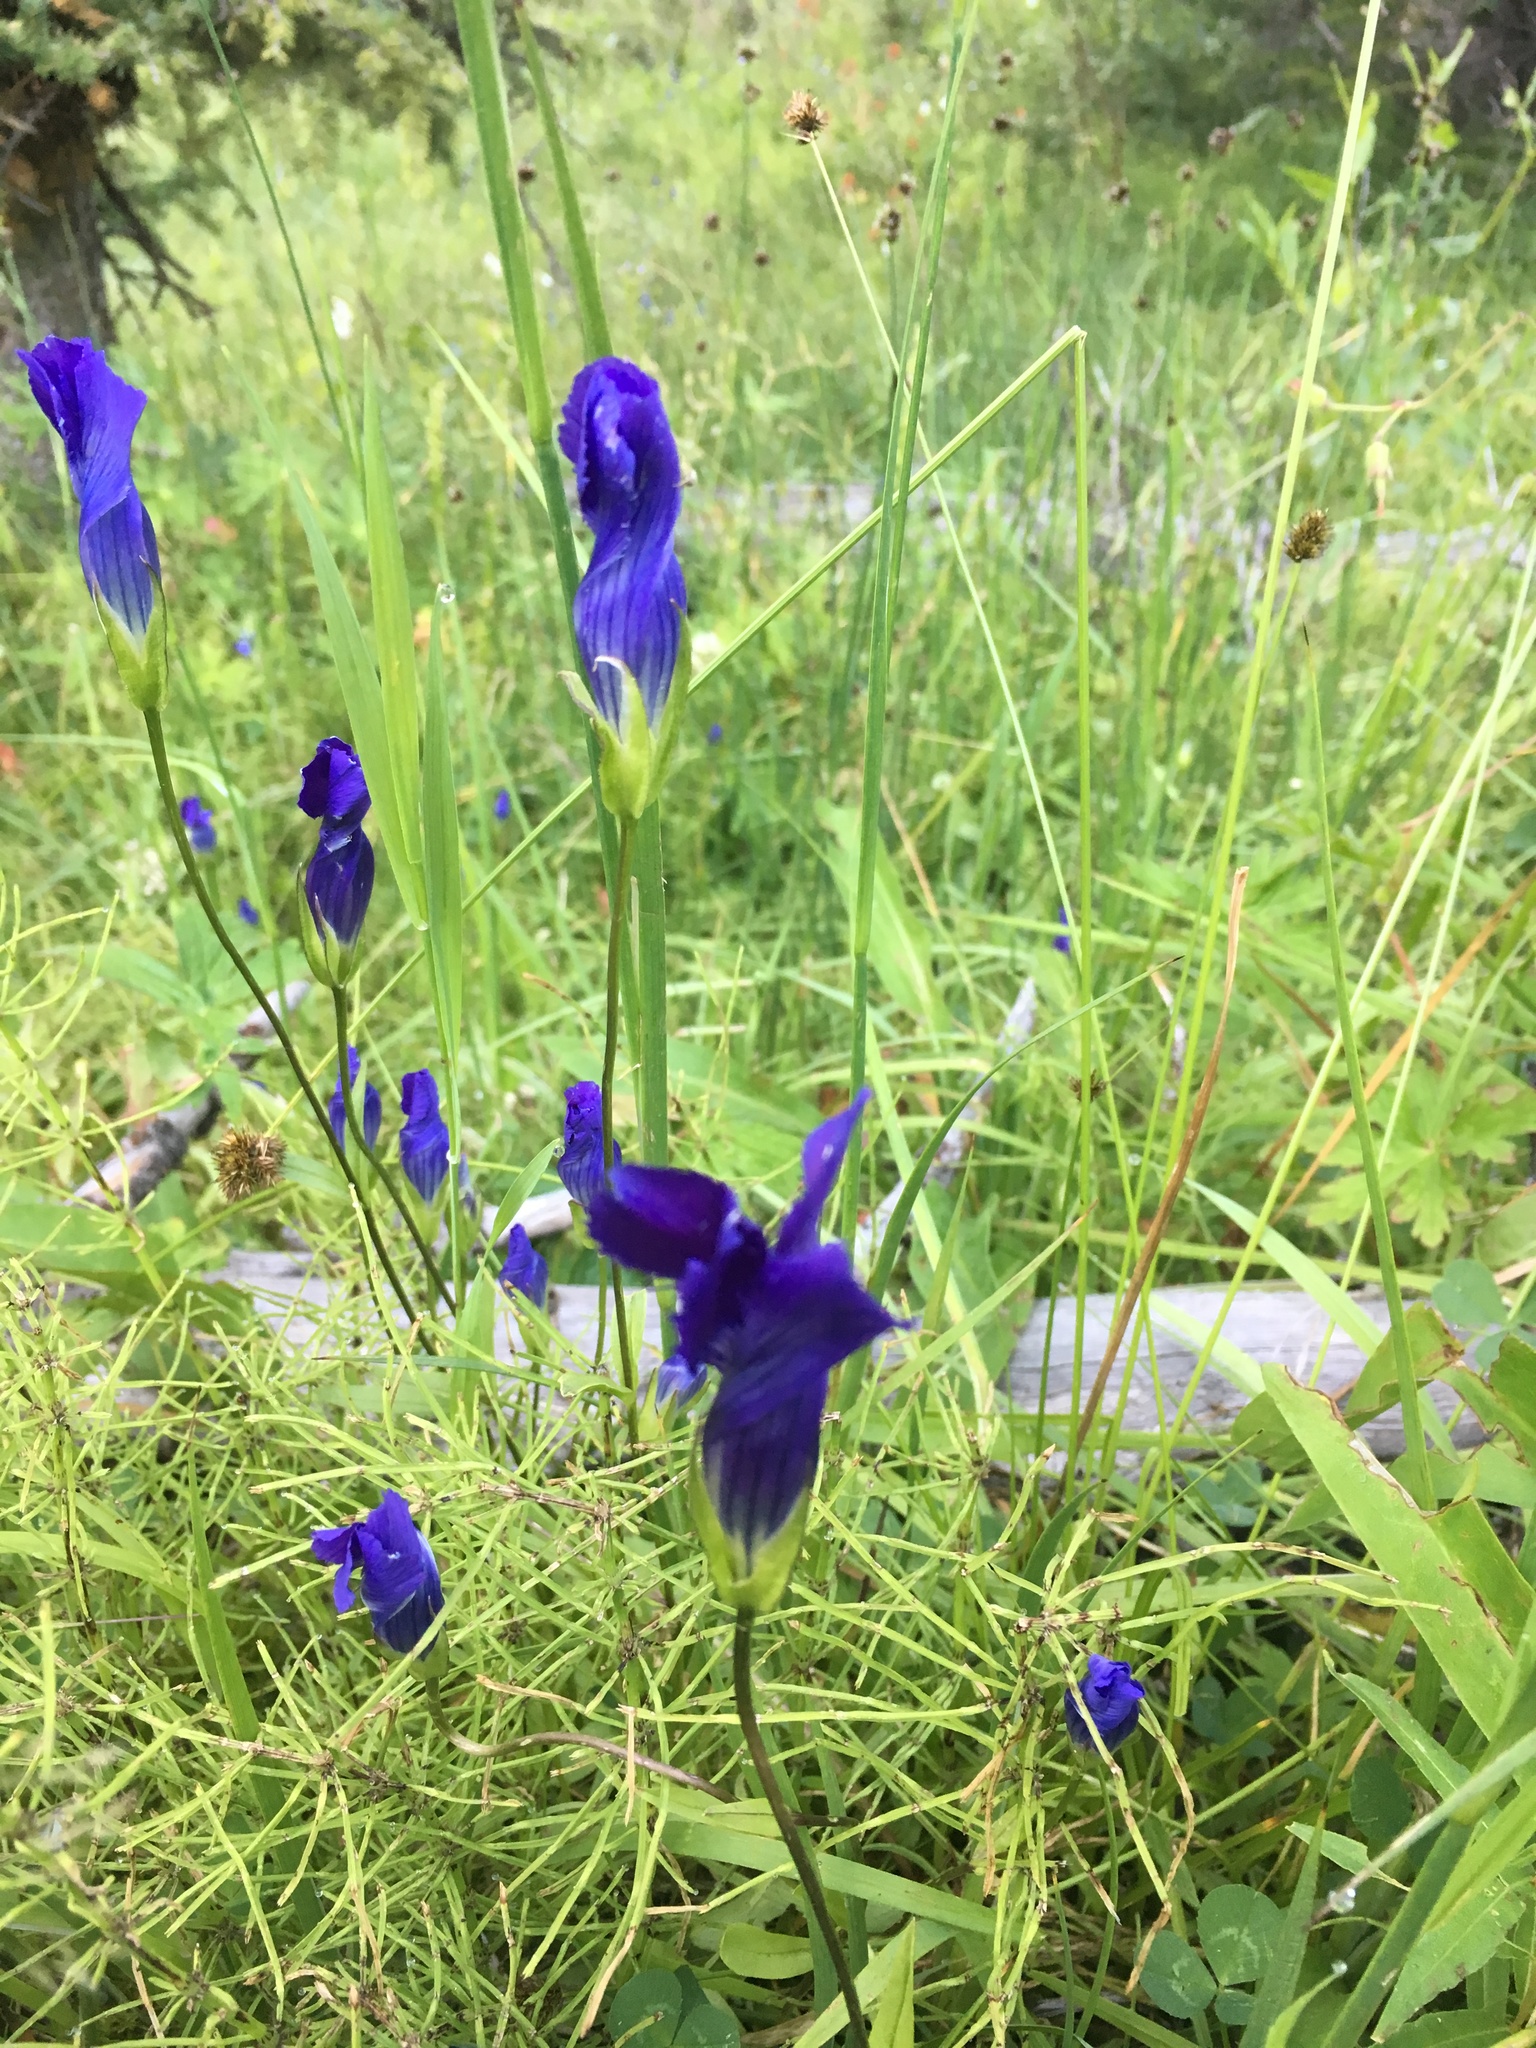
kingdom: Plantae
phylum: Tracheophyta
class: Magnoliopsida
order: Gentianales
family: Gentianaceae
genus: Gentianopsis
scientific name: Gentianopsis thermalis
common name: Rocky mountain fringed-gentian
